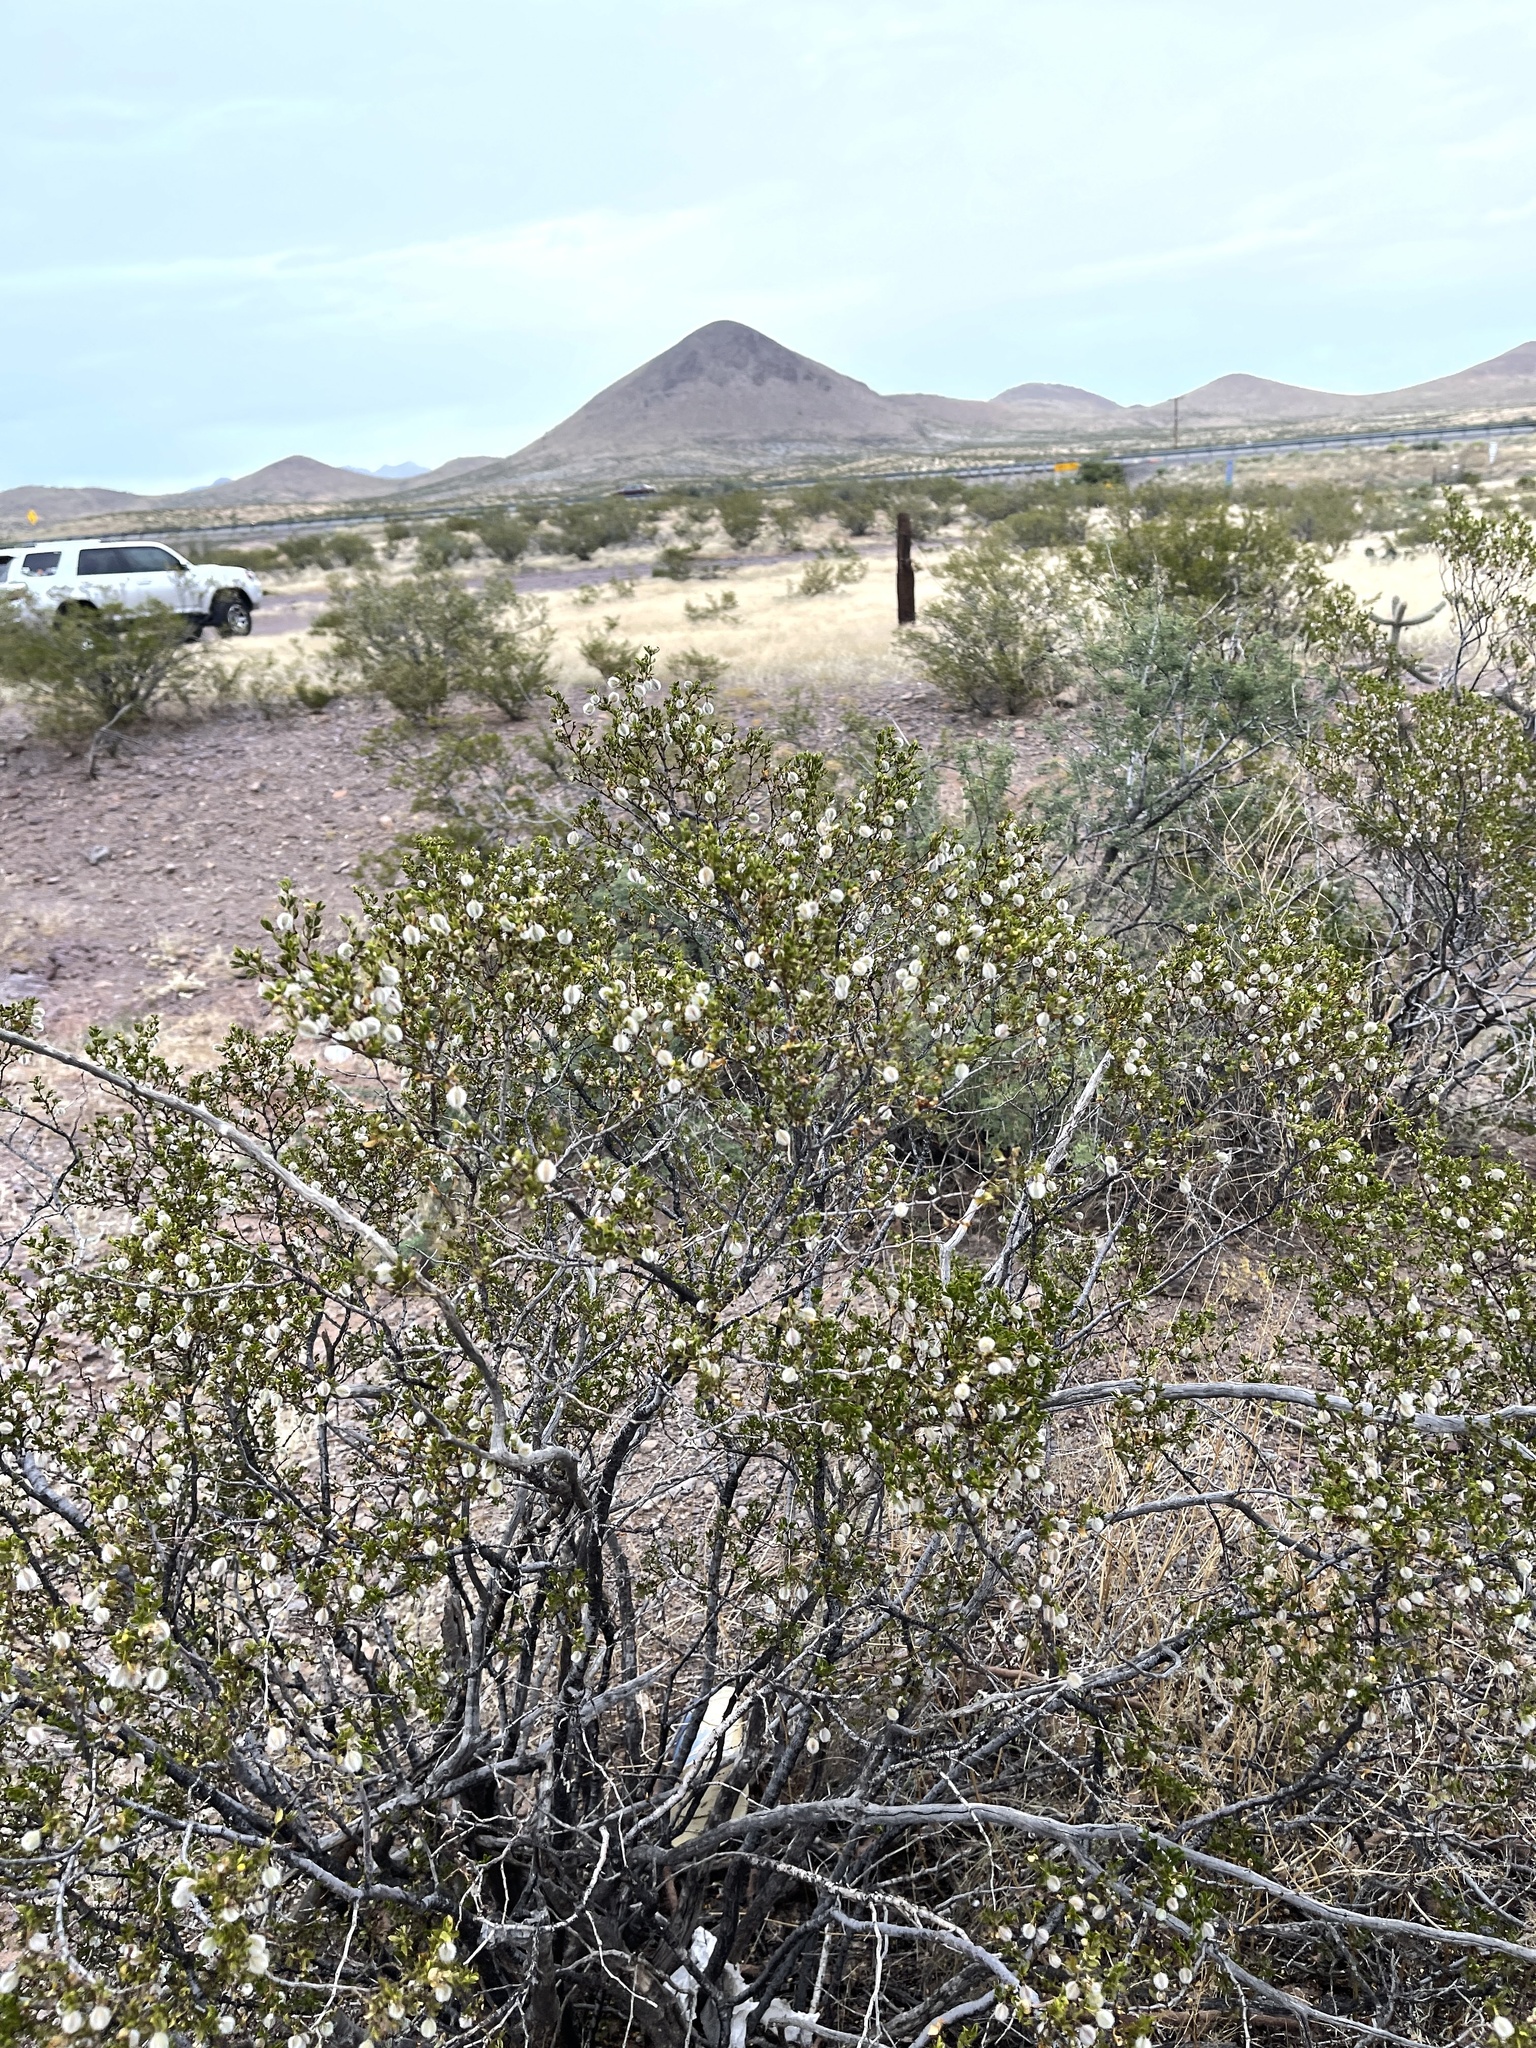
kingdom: Plantae
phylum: Tracheophyta
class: Magnoliopsida
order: Zygophyllales
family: Zygophyllaceae
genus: Larrea
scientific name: Larrea tridentata
